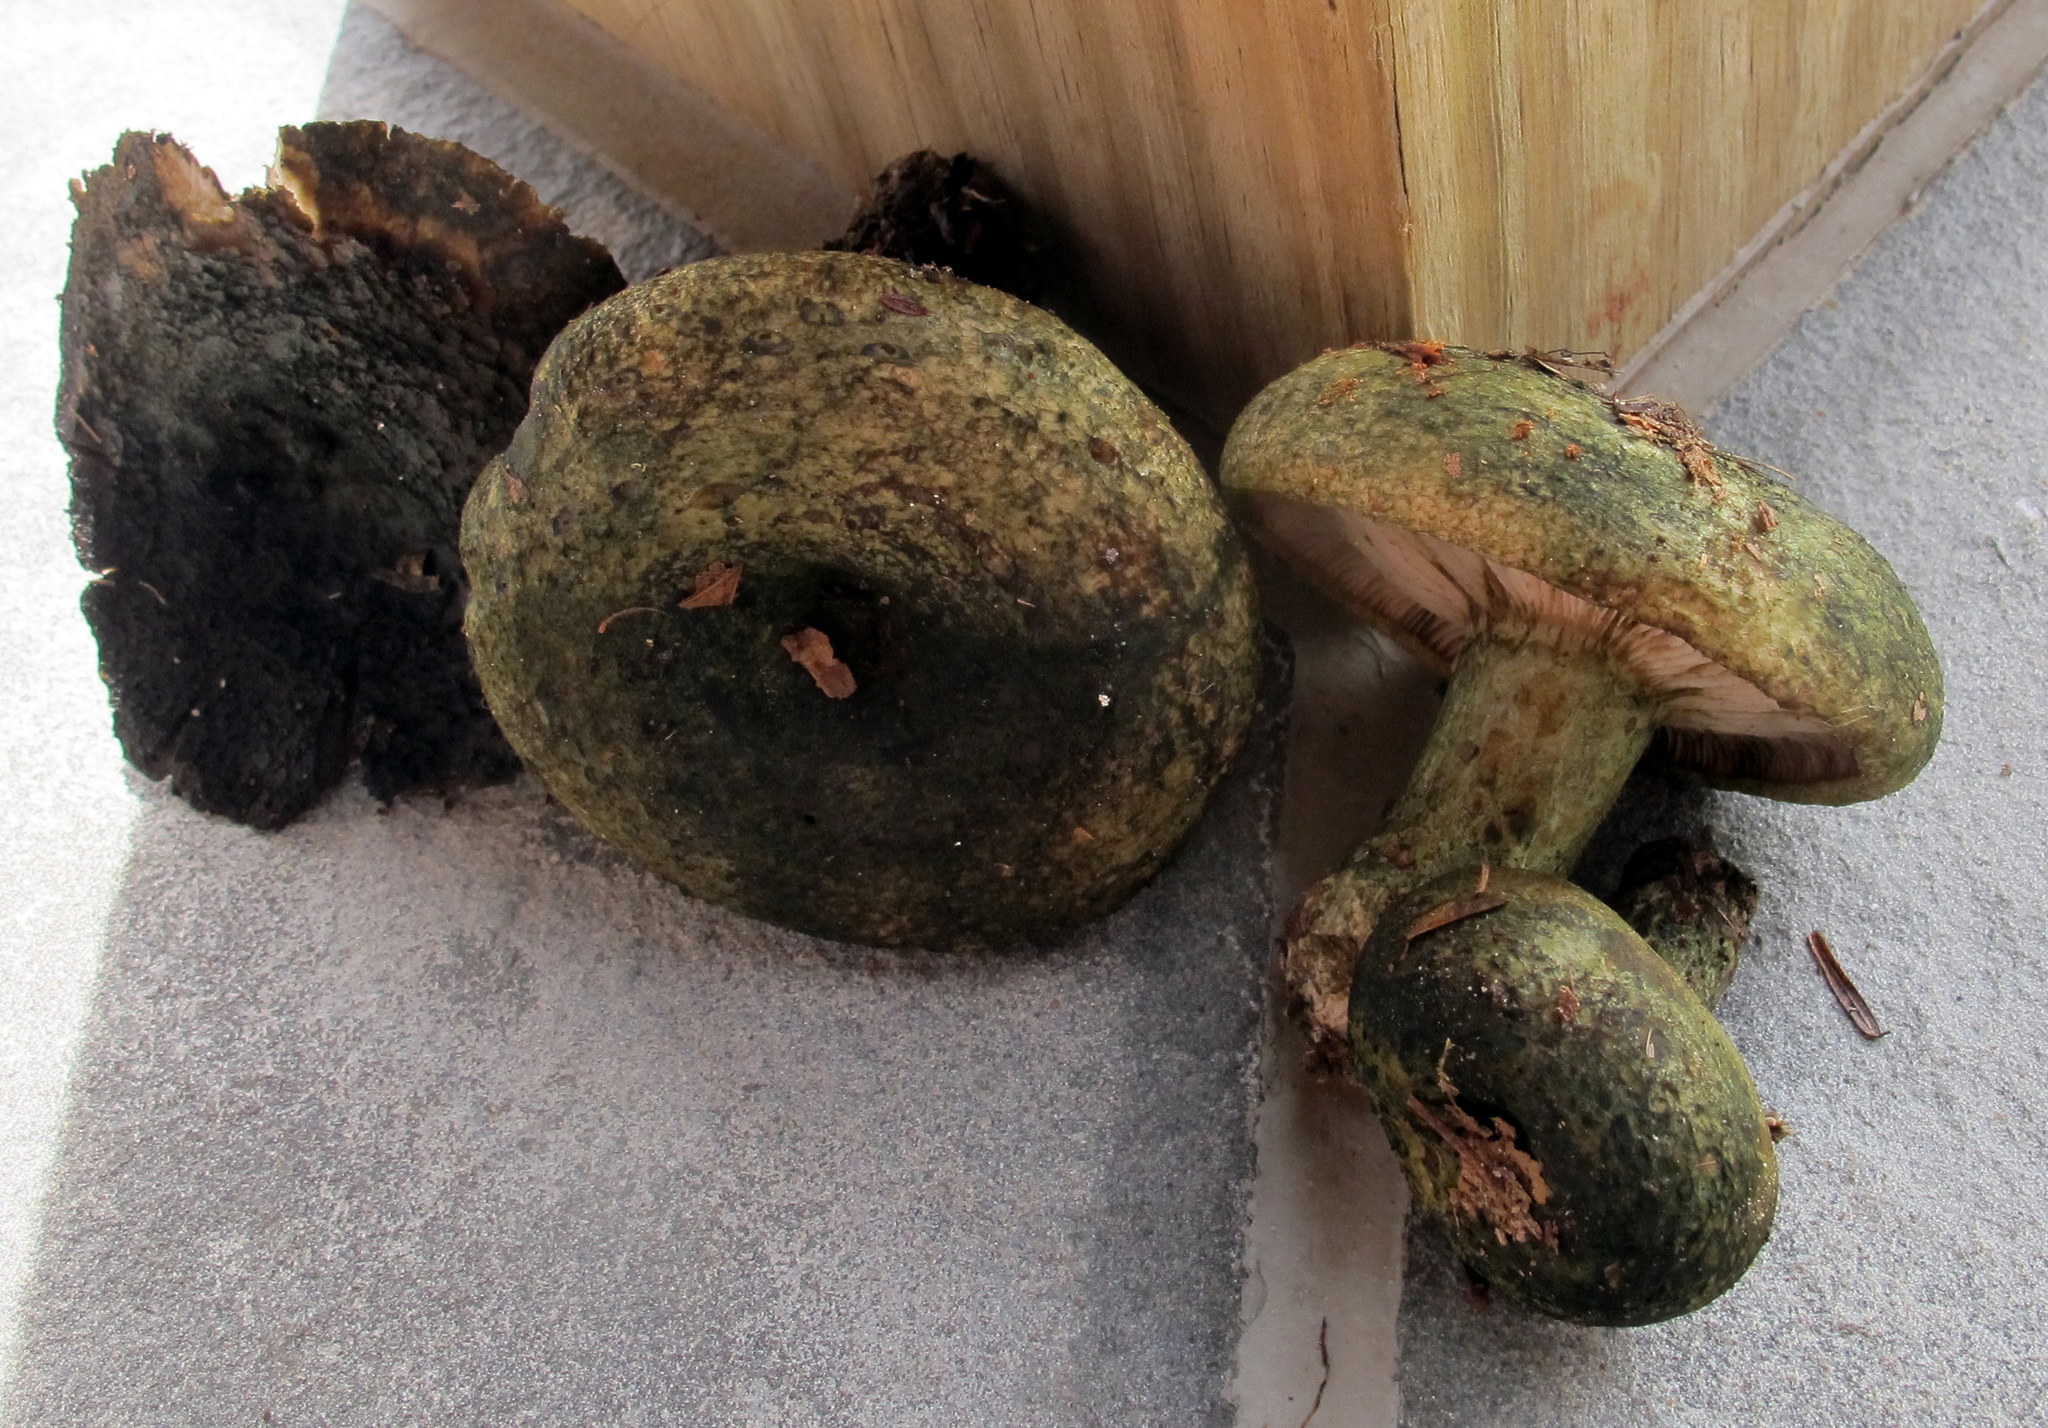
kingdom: Fungi
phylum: Basidiomycota
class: Agaricomycetes
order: Russulales
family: Russulaceae
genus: Lactarius
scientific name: Lactarius atroviridis
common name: Dark-spotted milkcap
